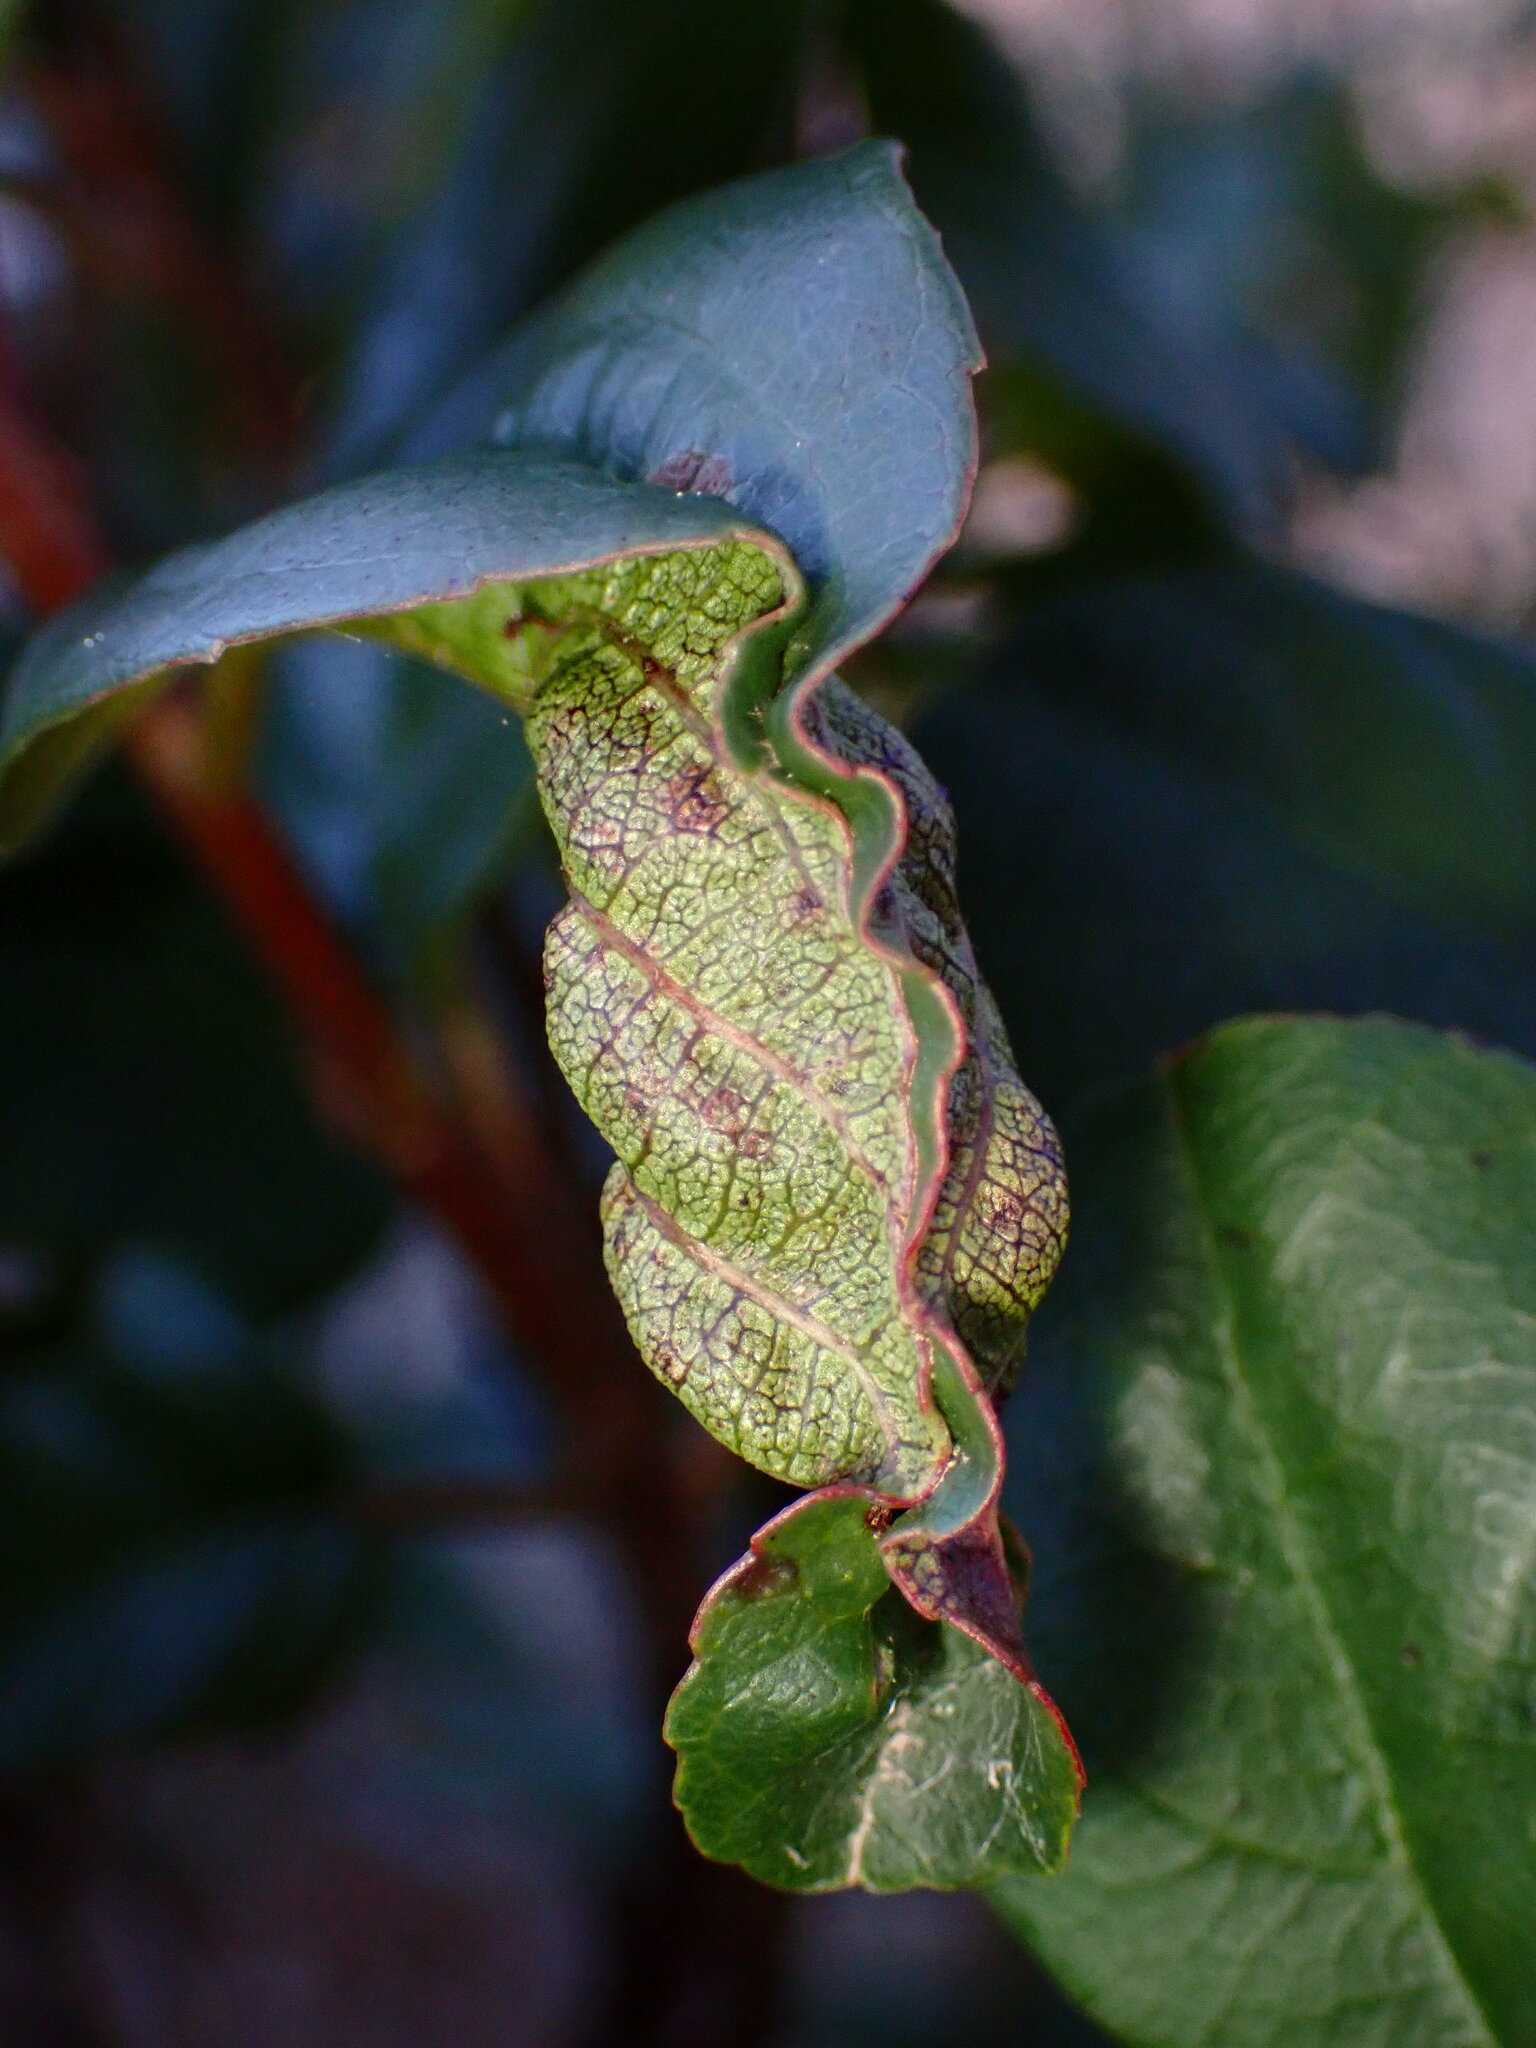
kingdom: Animalia
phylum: Arthropoda
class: Insecta
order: Lepidoptera
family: Cosmopterigidae
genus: Sorhagenia
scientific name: Sorhagenia nimbosus
